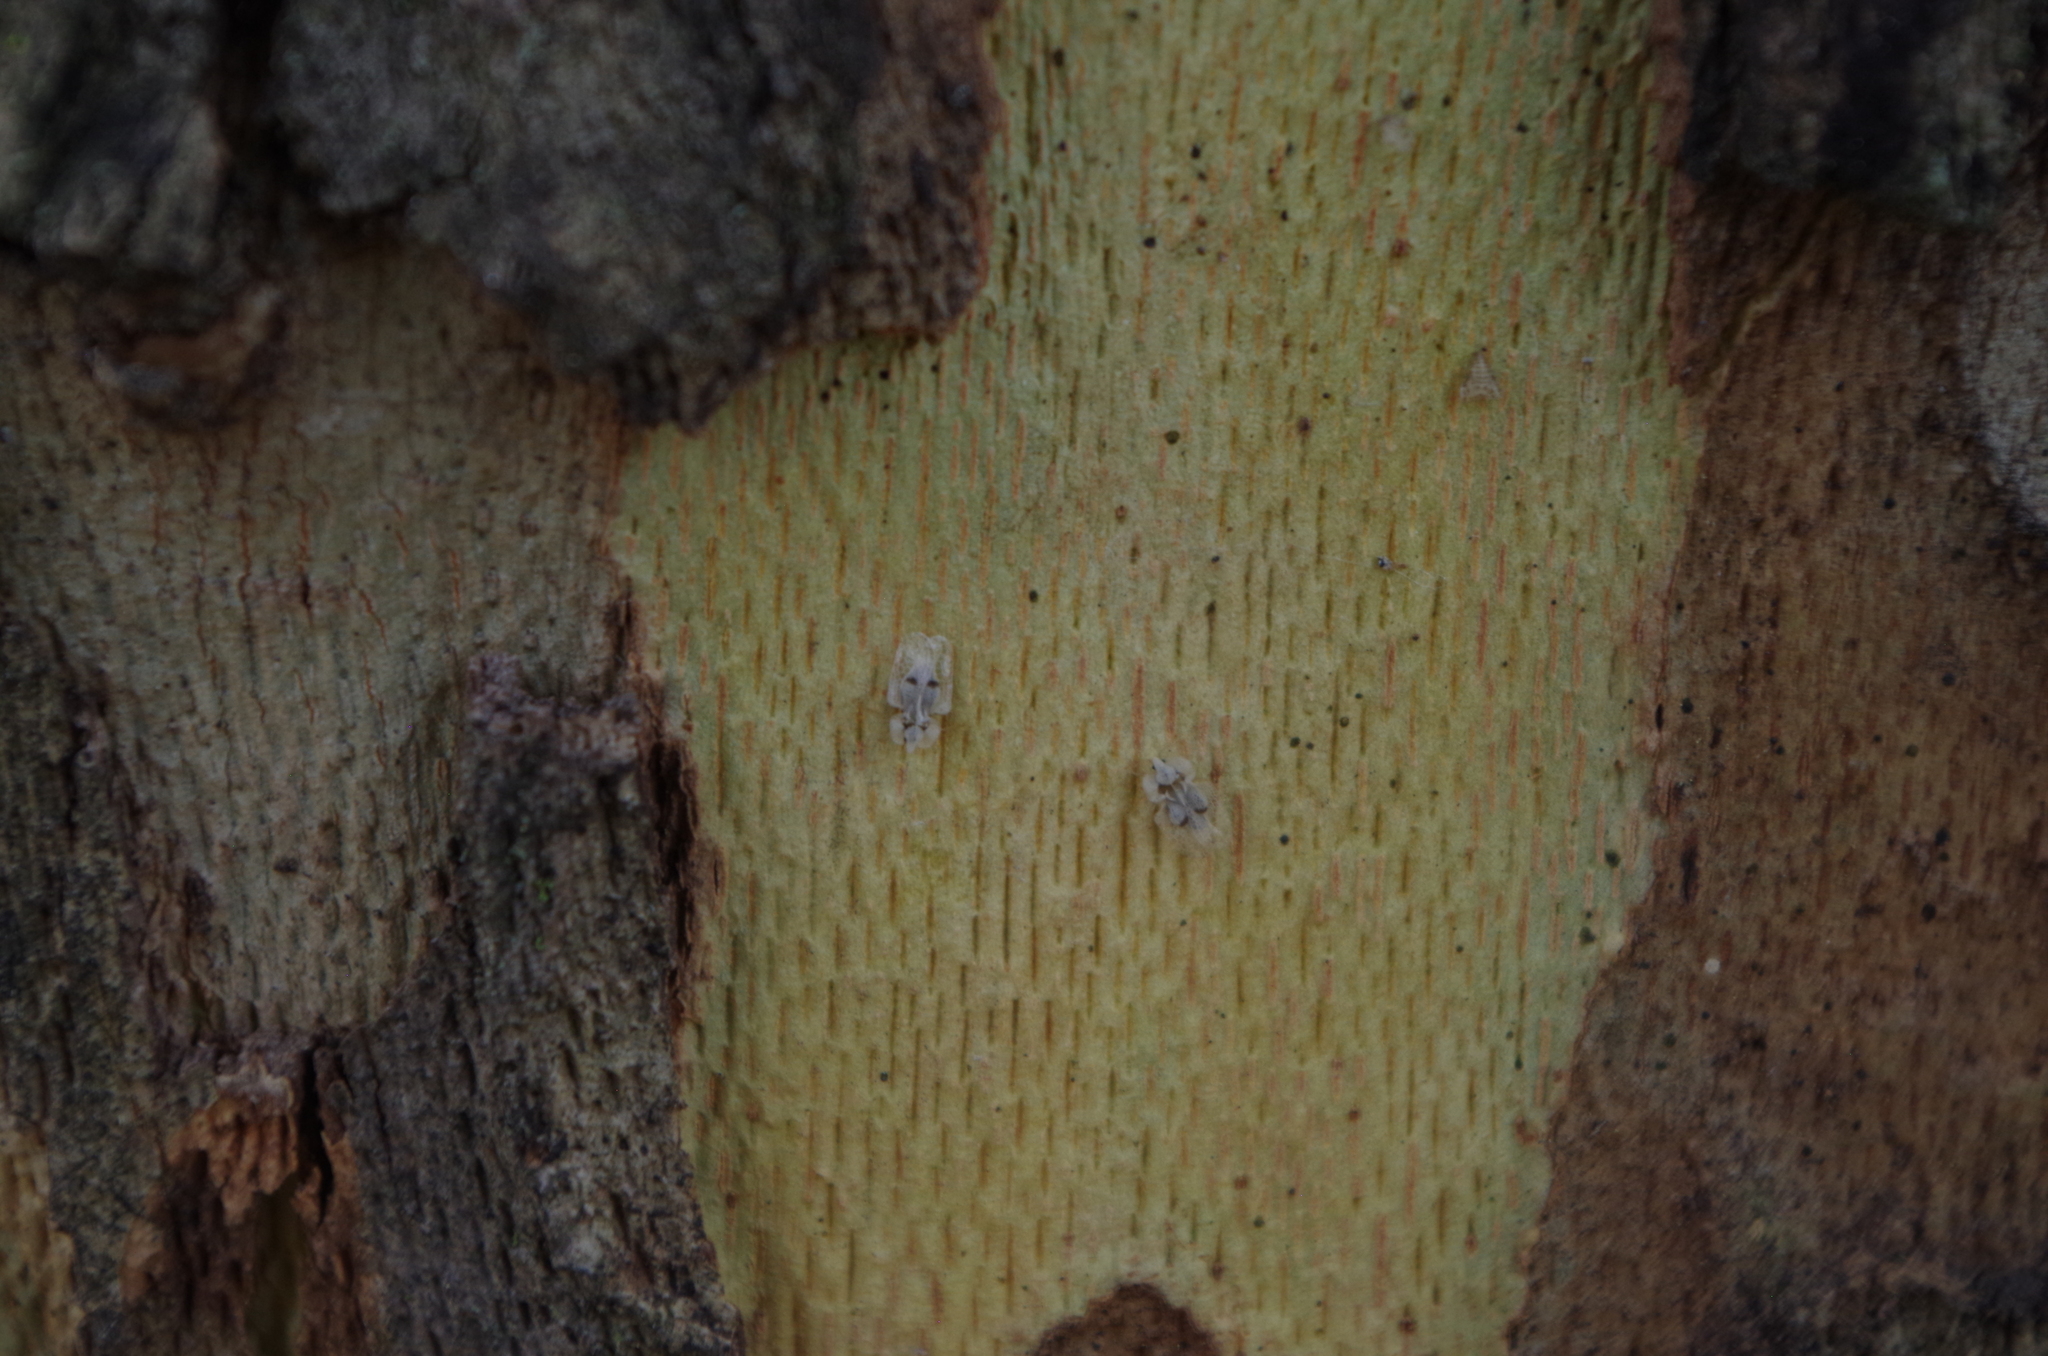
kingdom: Animalia
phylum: Arthropoda
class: Insecta
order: Hemiptera
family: Tingidae
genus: Corythucha
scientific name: Corythucha ciliata
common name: Sycamore lace bug
